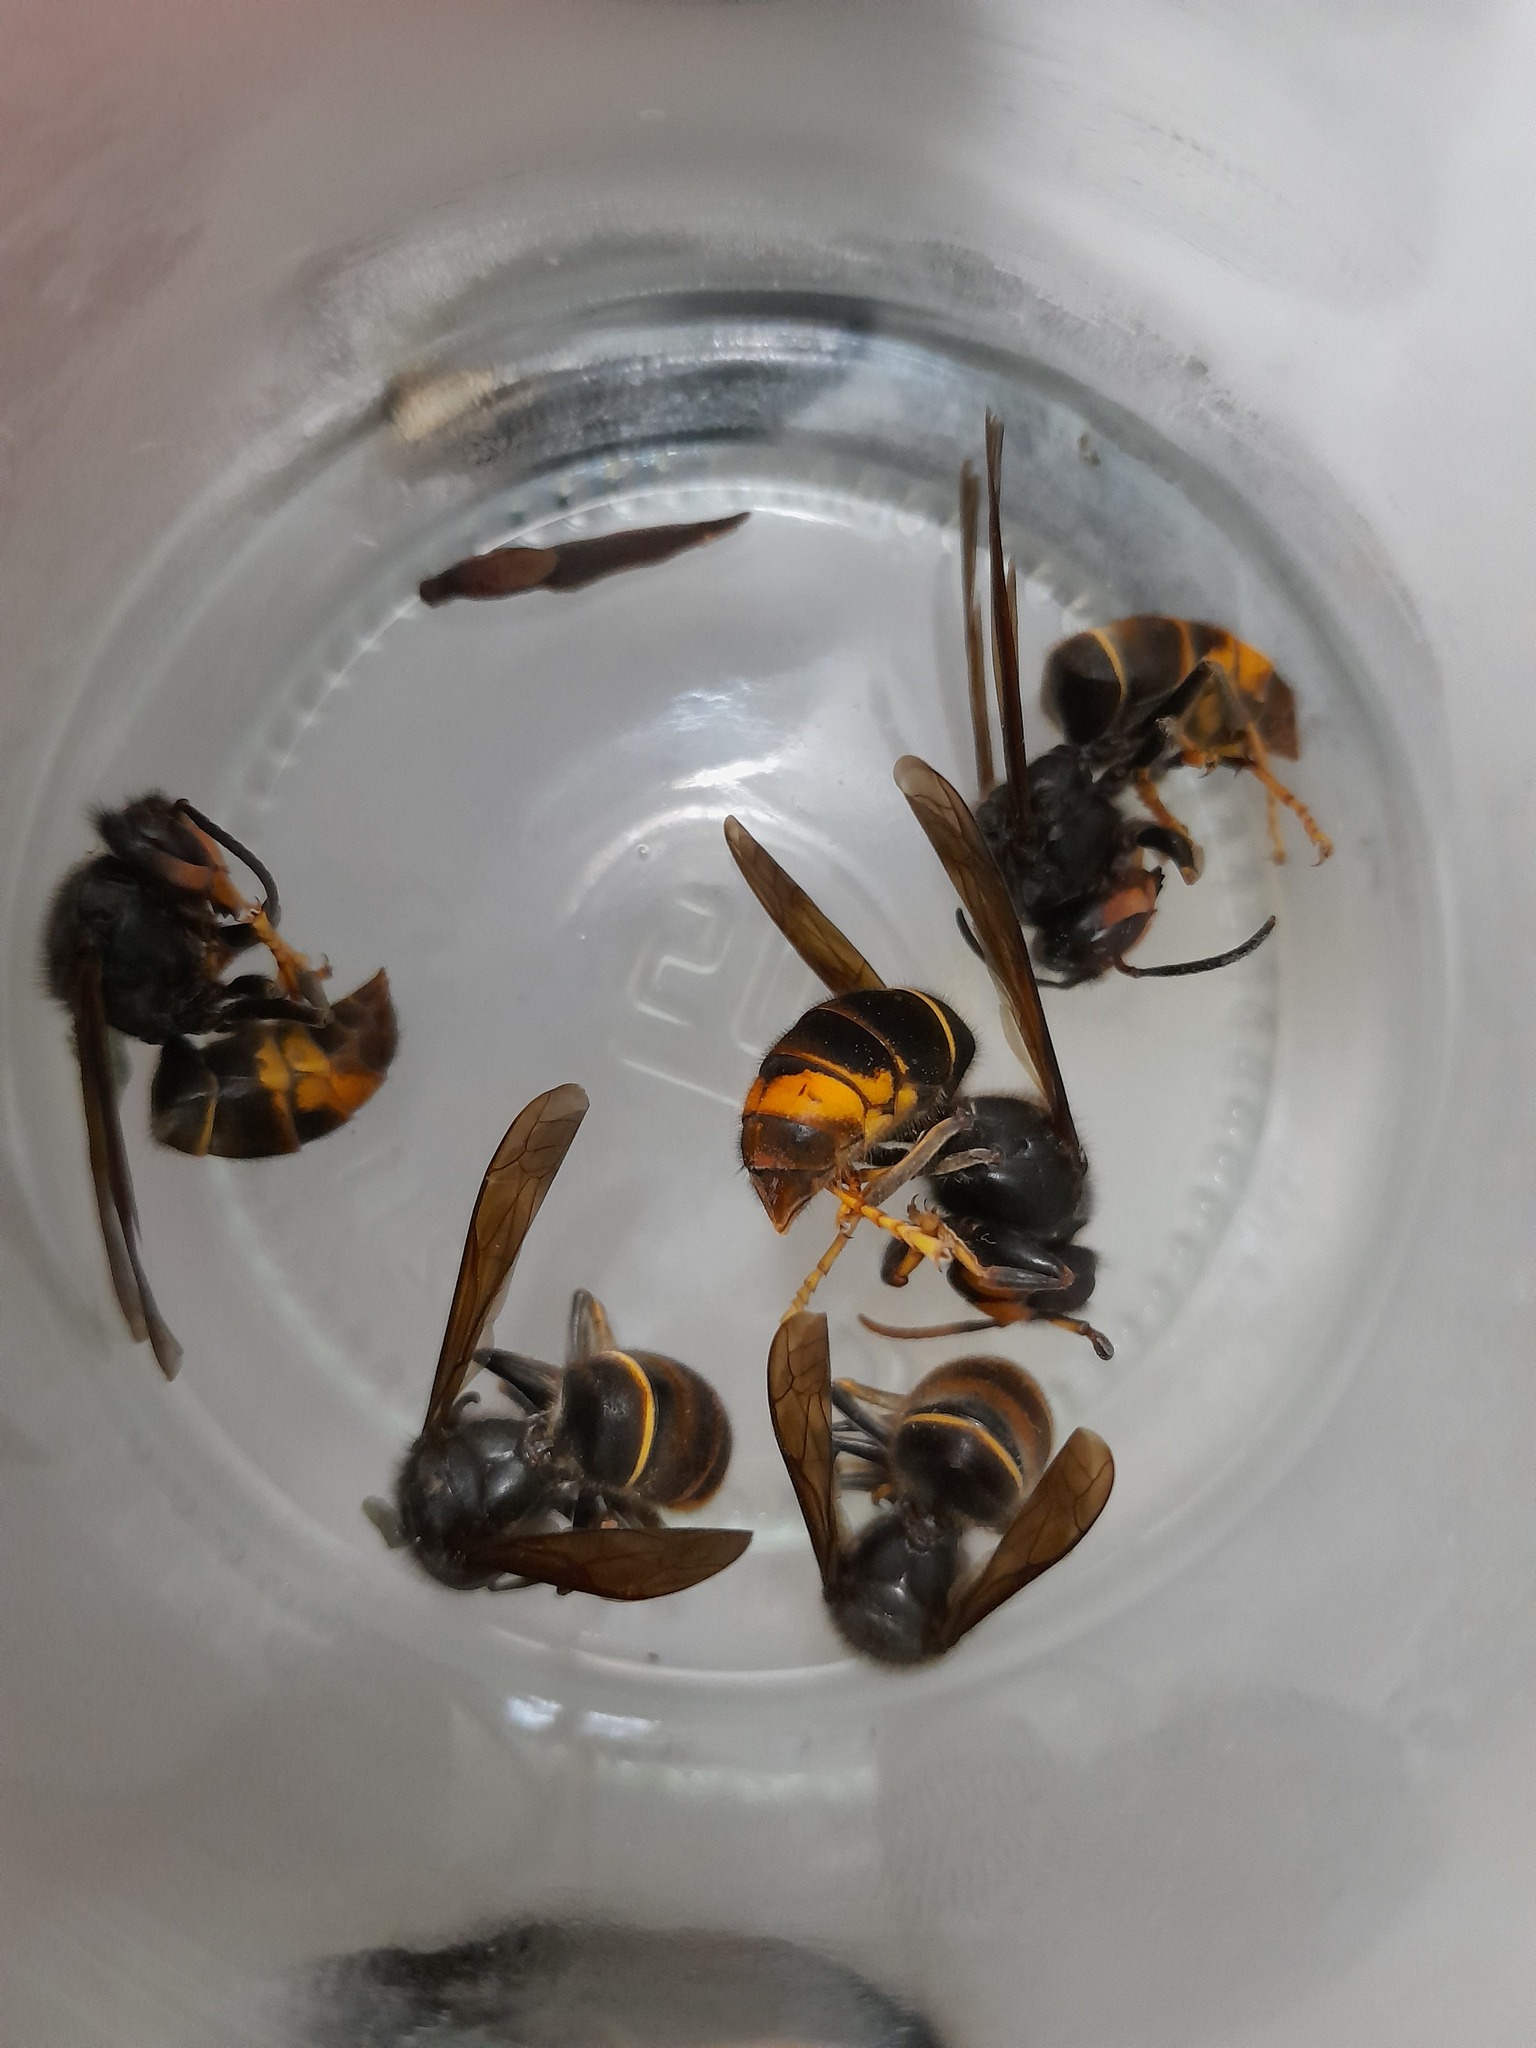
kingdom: Animalia
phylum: Arthropoda
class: Insecta
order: Hymenoptera
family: Vespidae
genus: Vespa
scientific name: Vespa velutina
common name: Asian hornet
